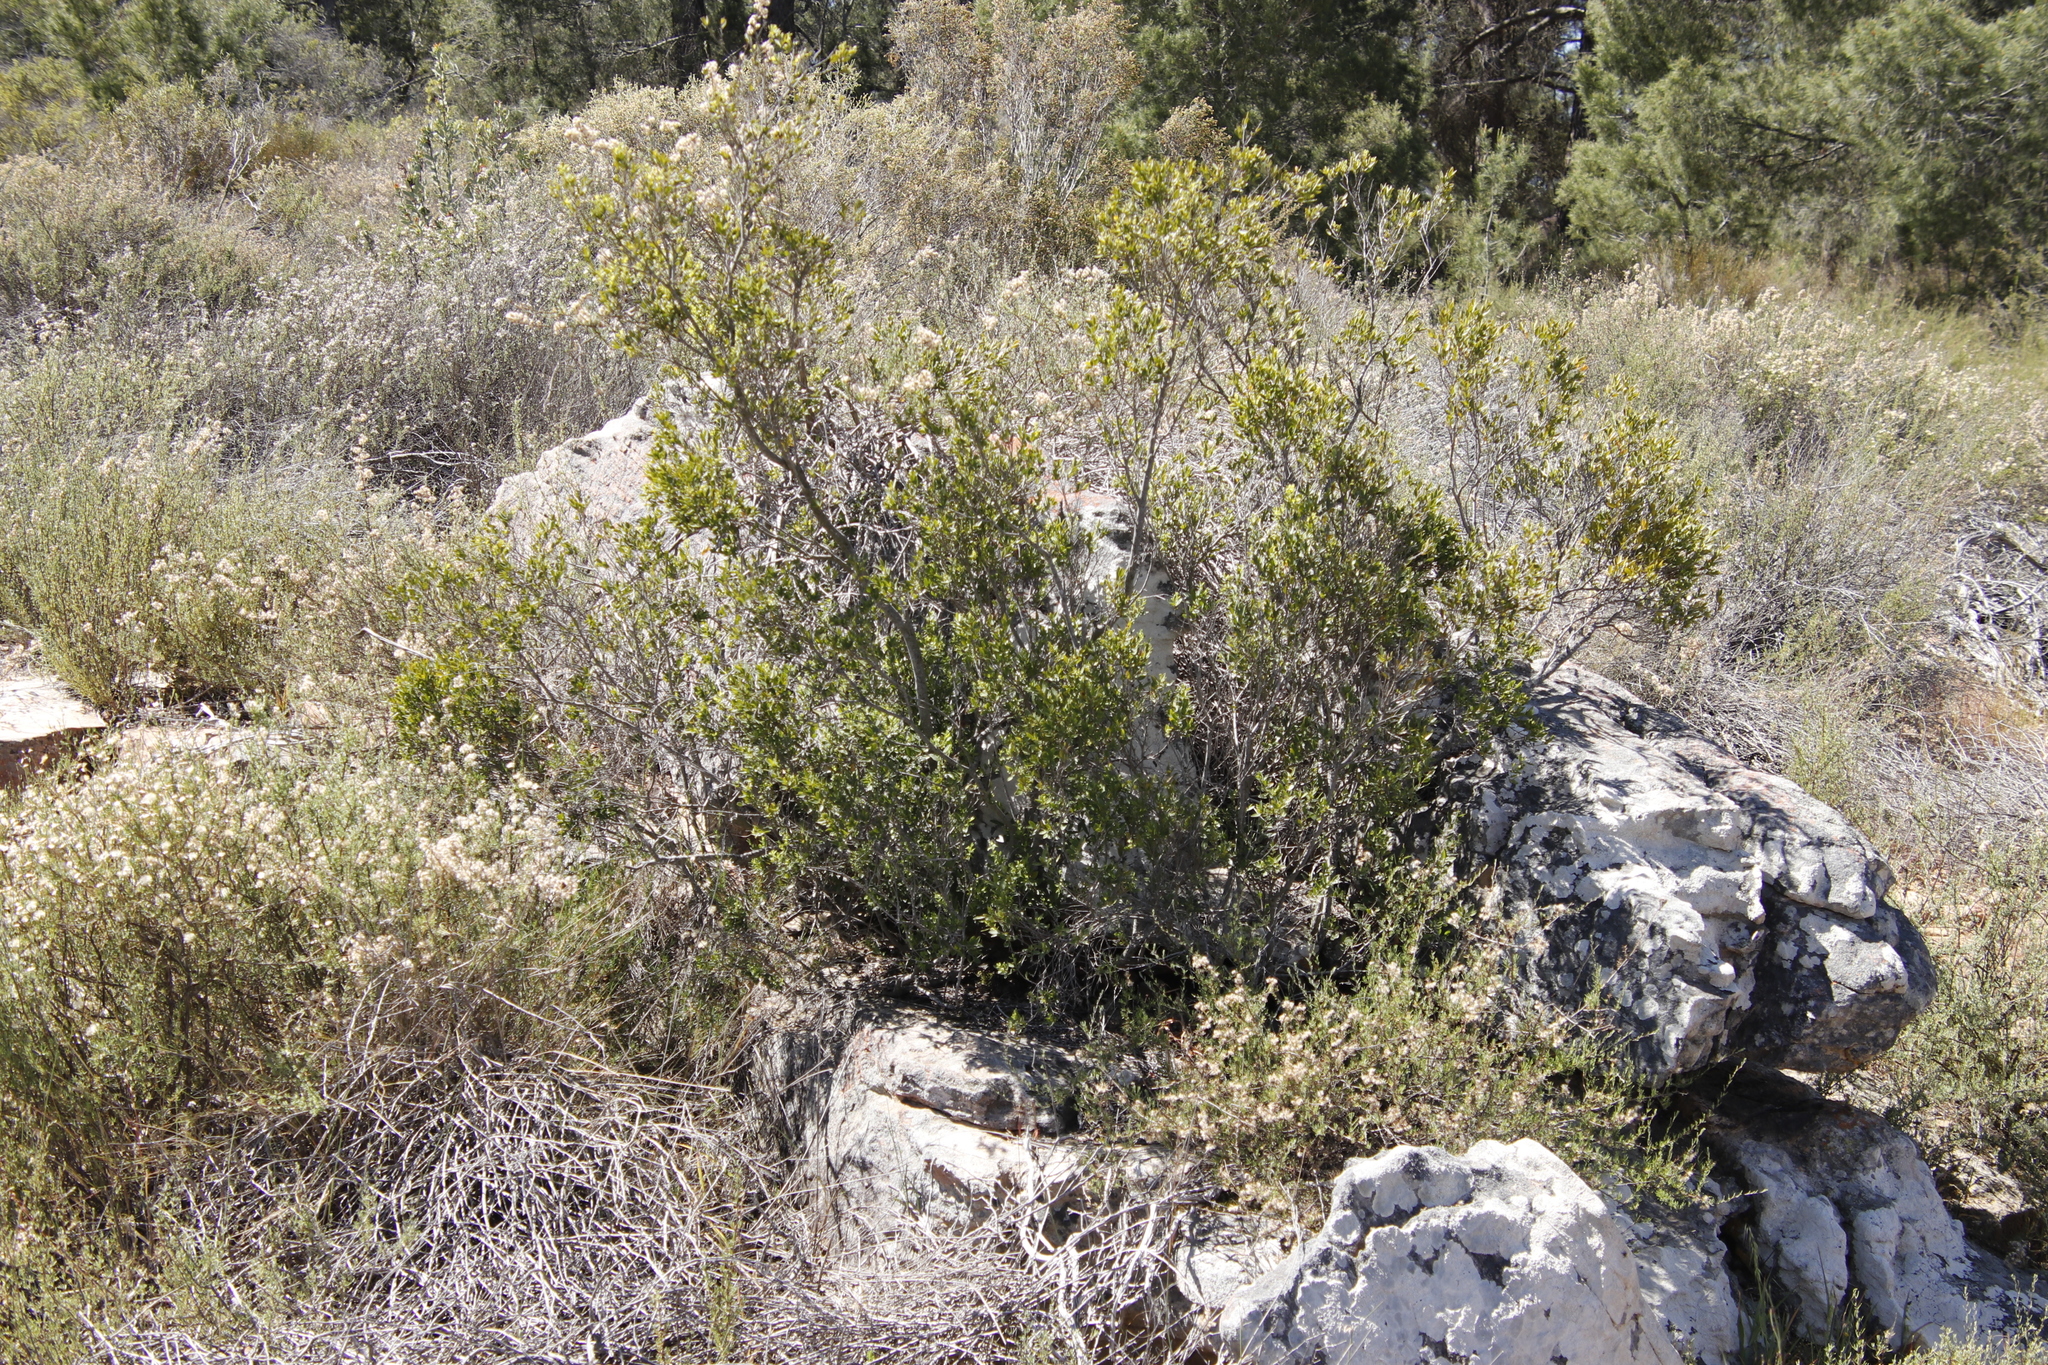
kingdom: Plantae
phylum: Tracheophyta
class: Magnoliopsida
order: Ericales
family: Ebenaceae
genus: Diospyros
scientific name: Diospyros glabra
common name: Fynbos star apple
